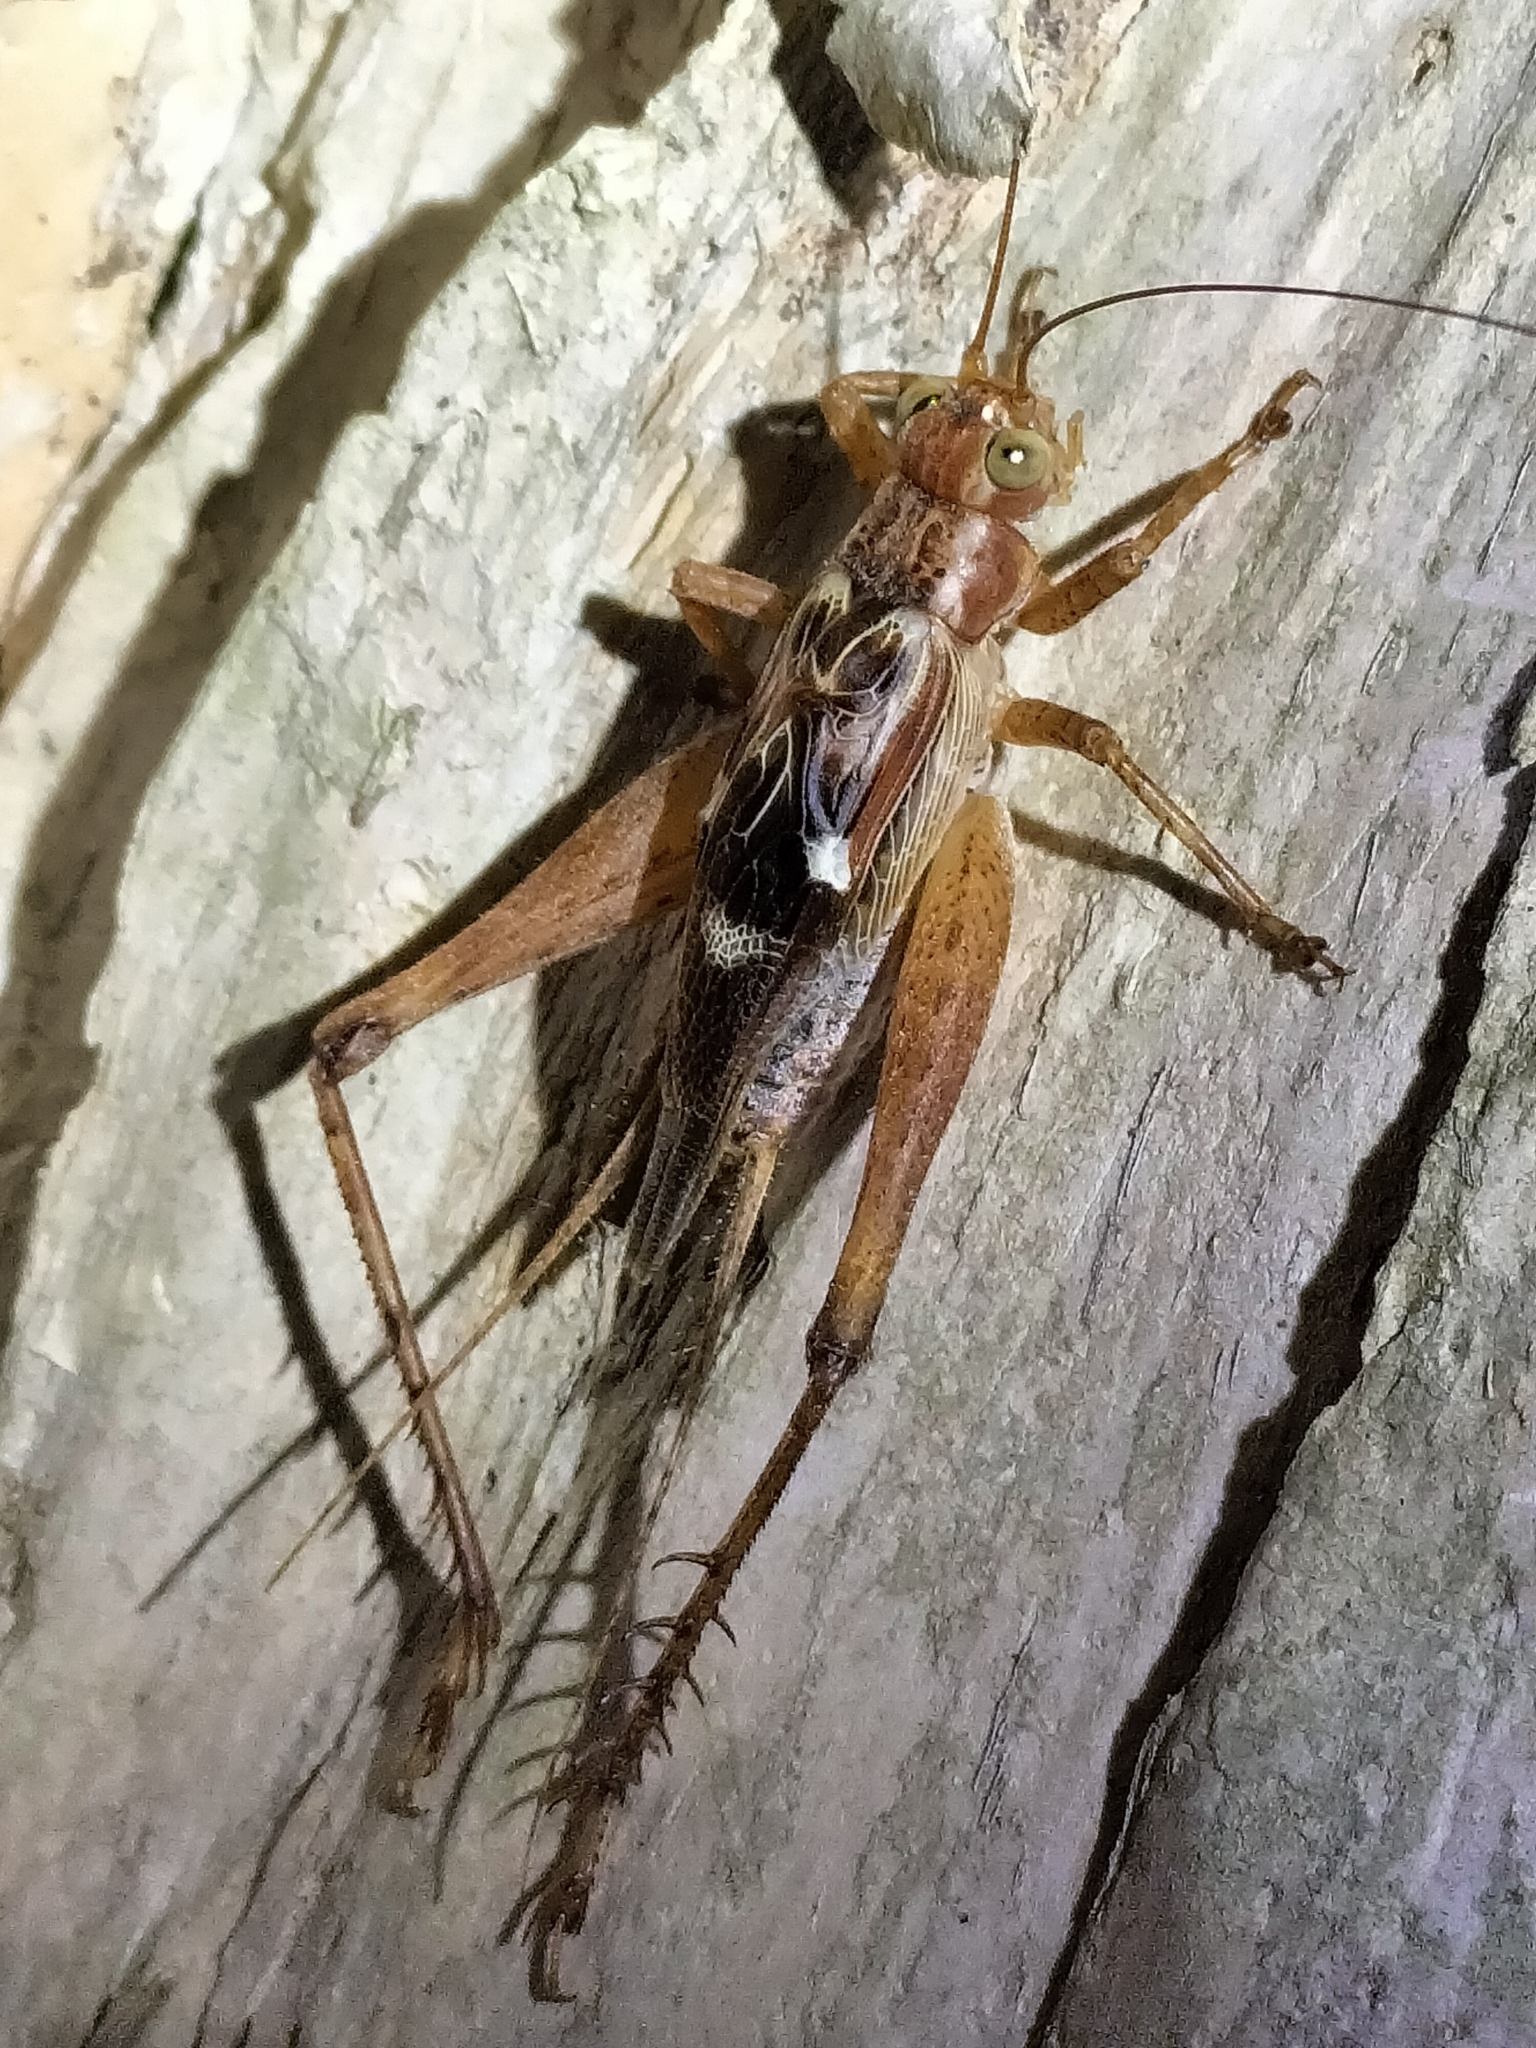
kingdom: Animalia
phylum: Arthropoda
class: Insecta
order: Orthoptera
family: Gryllidae
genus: Cardiodactylus
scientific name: Cardiodactylus novaeguineae
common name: Sad cricket
